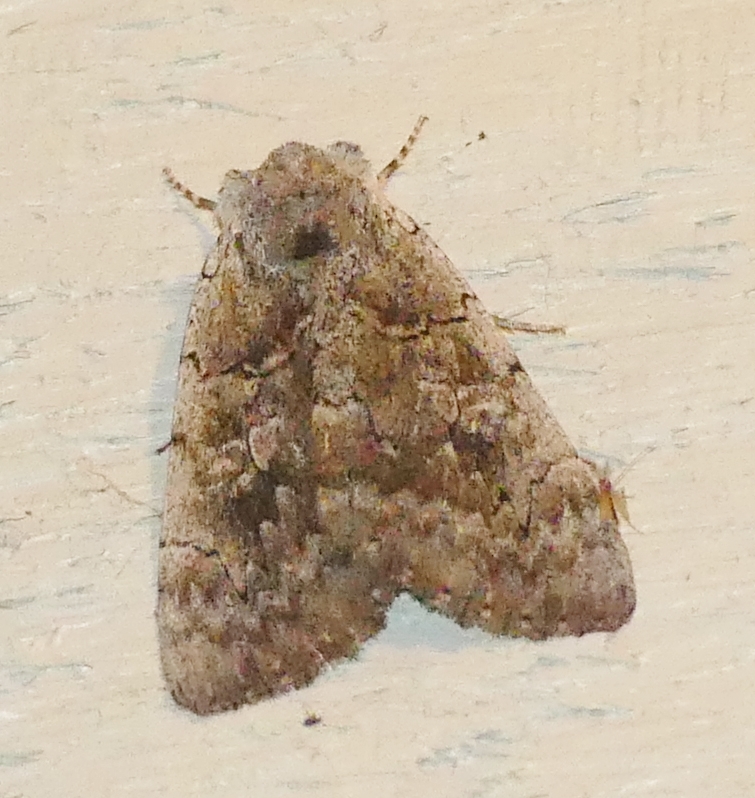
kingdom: Animalia
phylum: Arthropoda
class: Insecta
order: Lepidoptera
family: Erebidae
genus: Catocala
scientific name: Catocala concumbens
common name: Pink underwing
